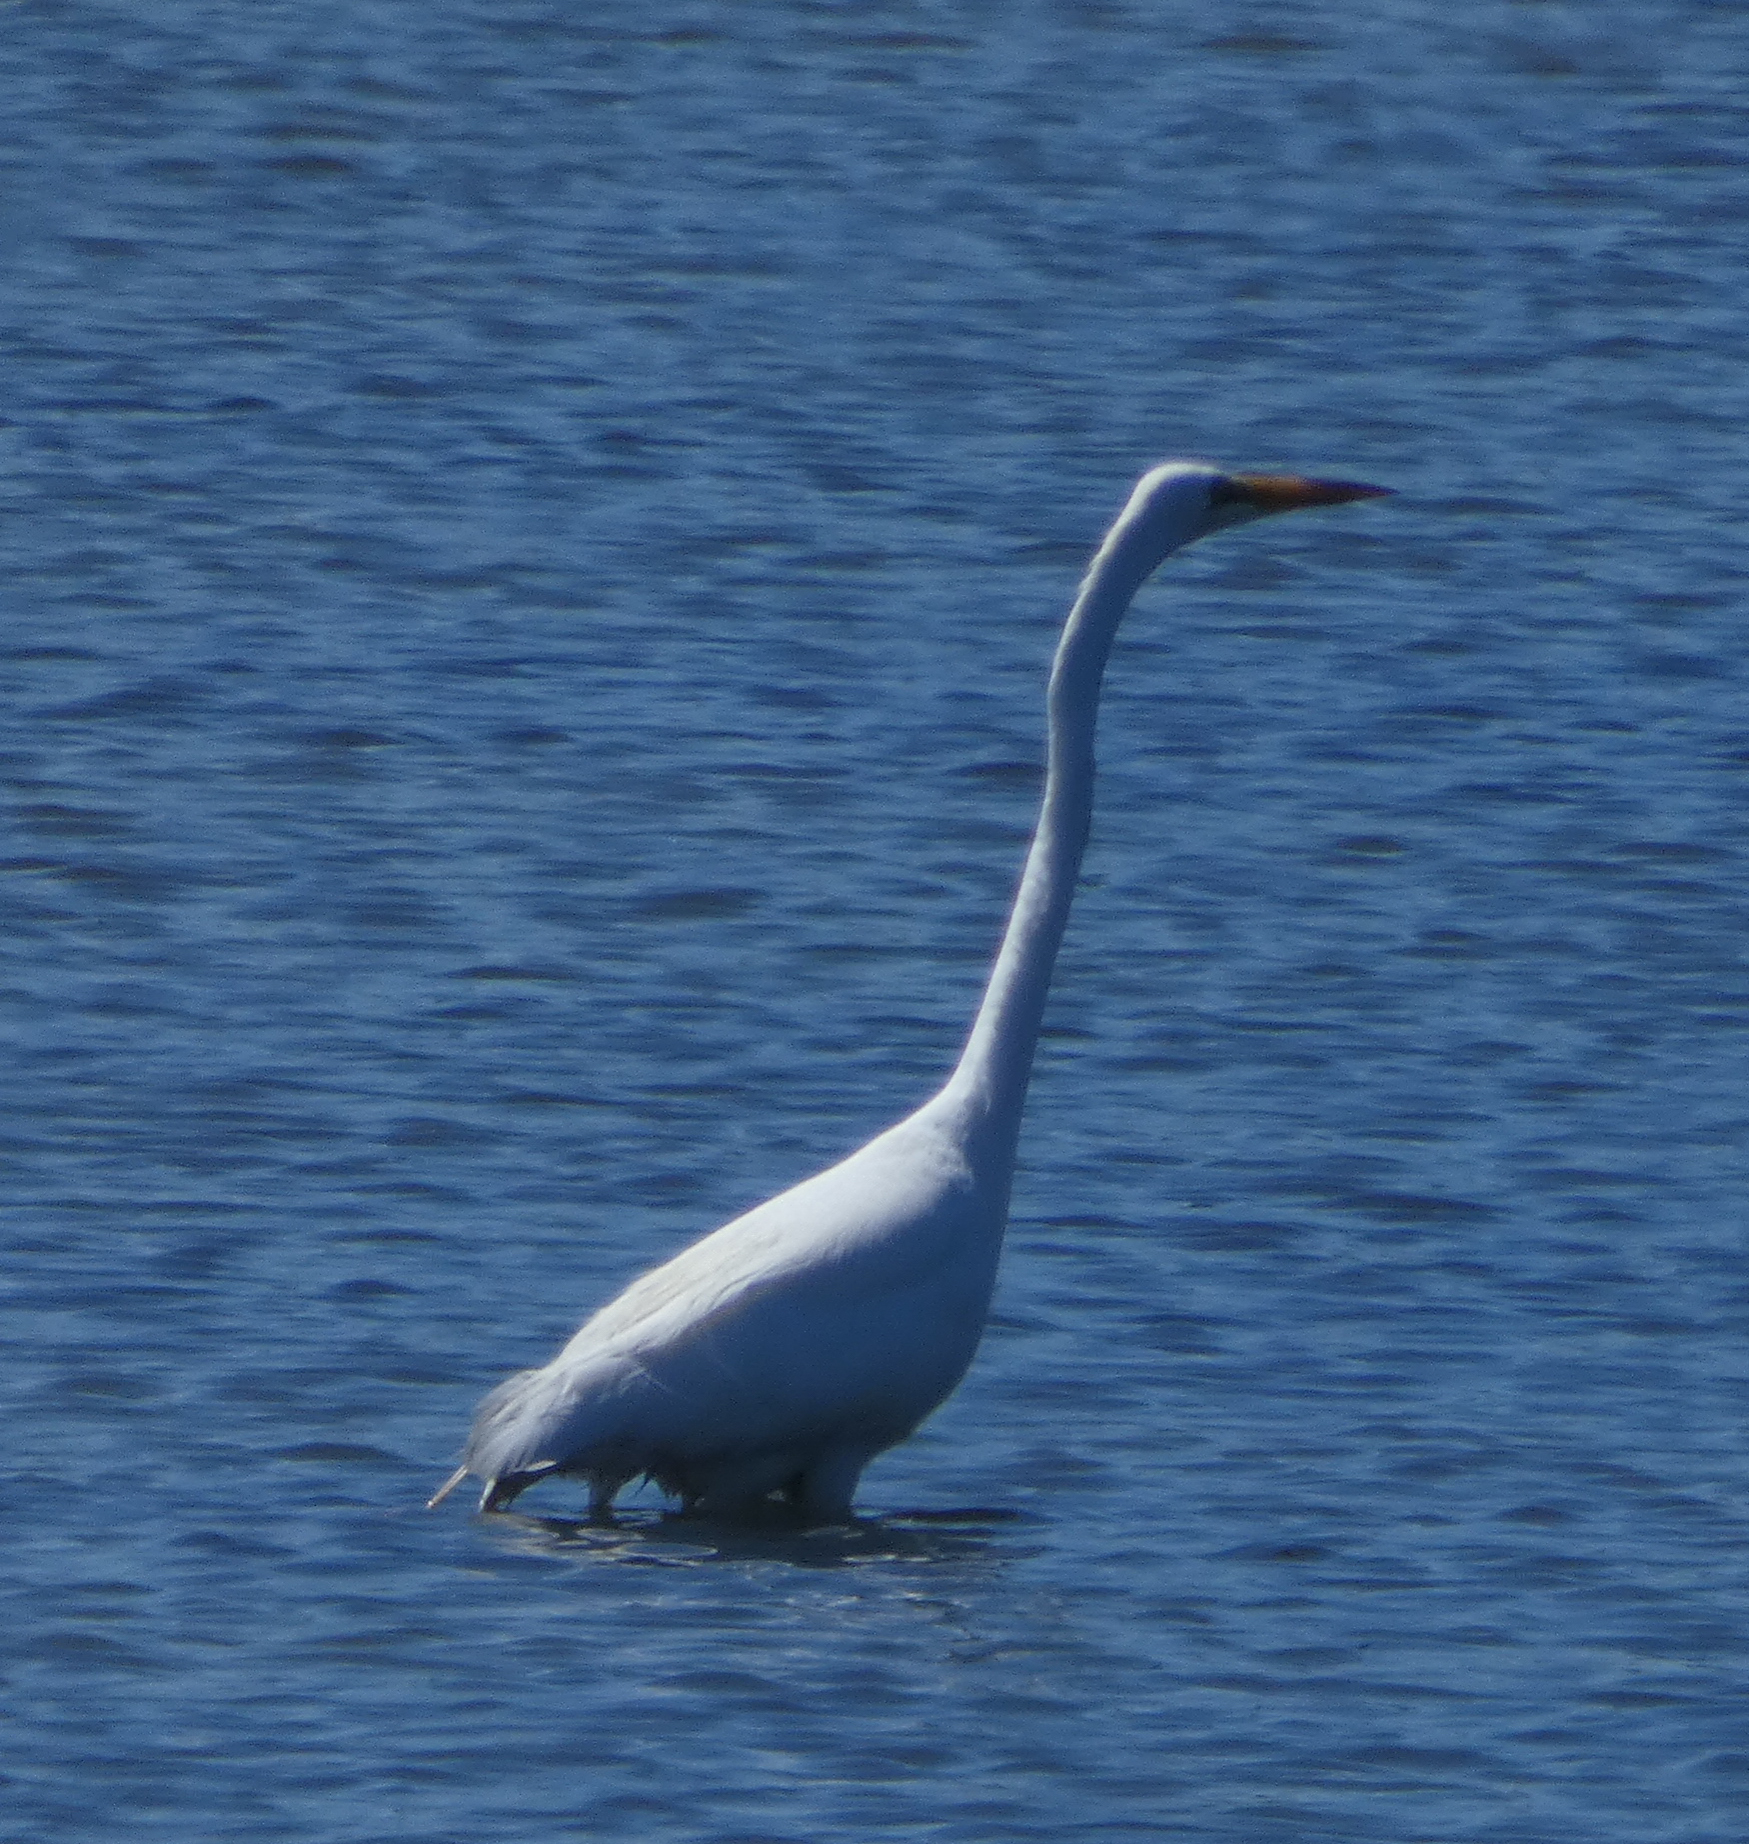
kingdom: Animalia
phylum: Chordata
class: Aves
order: Pelecaniformes
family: Ardeidae
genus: Ardea
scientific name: Ardea alba
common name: Great egret
